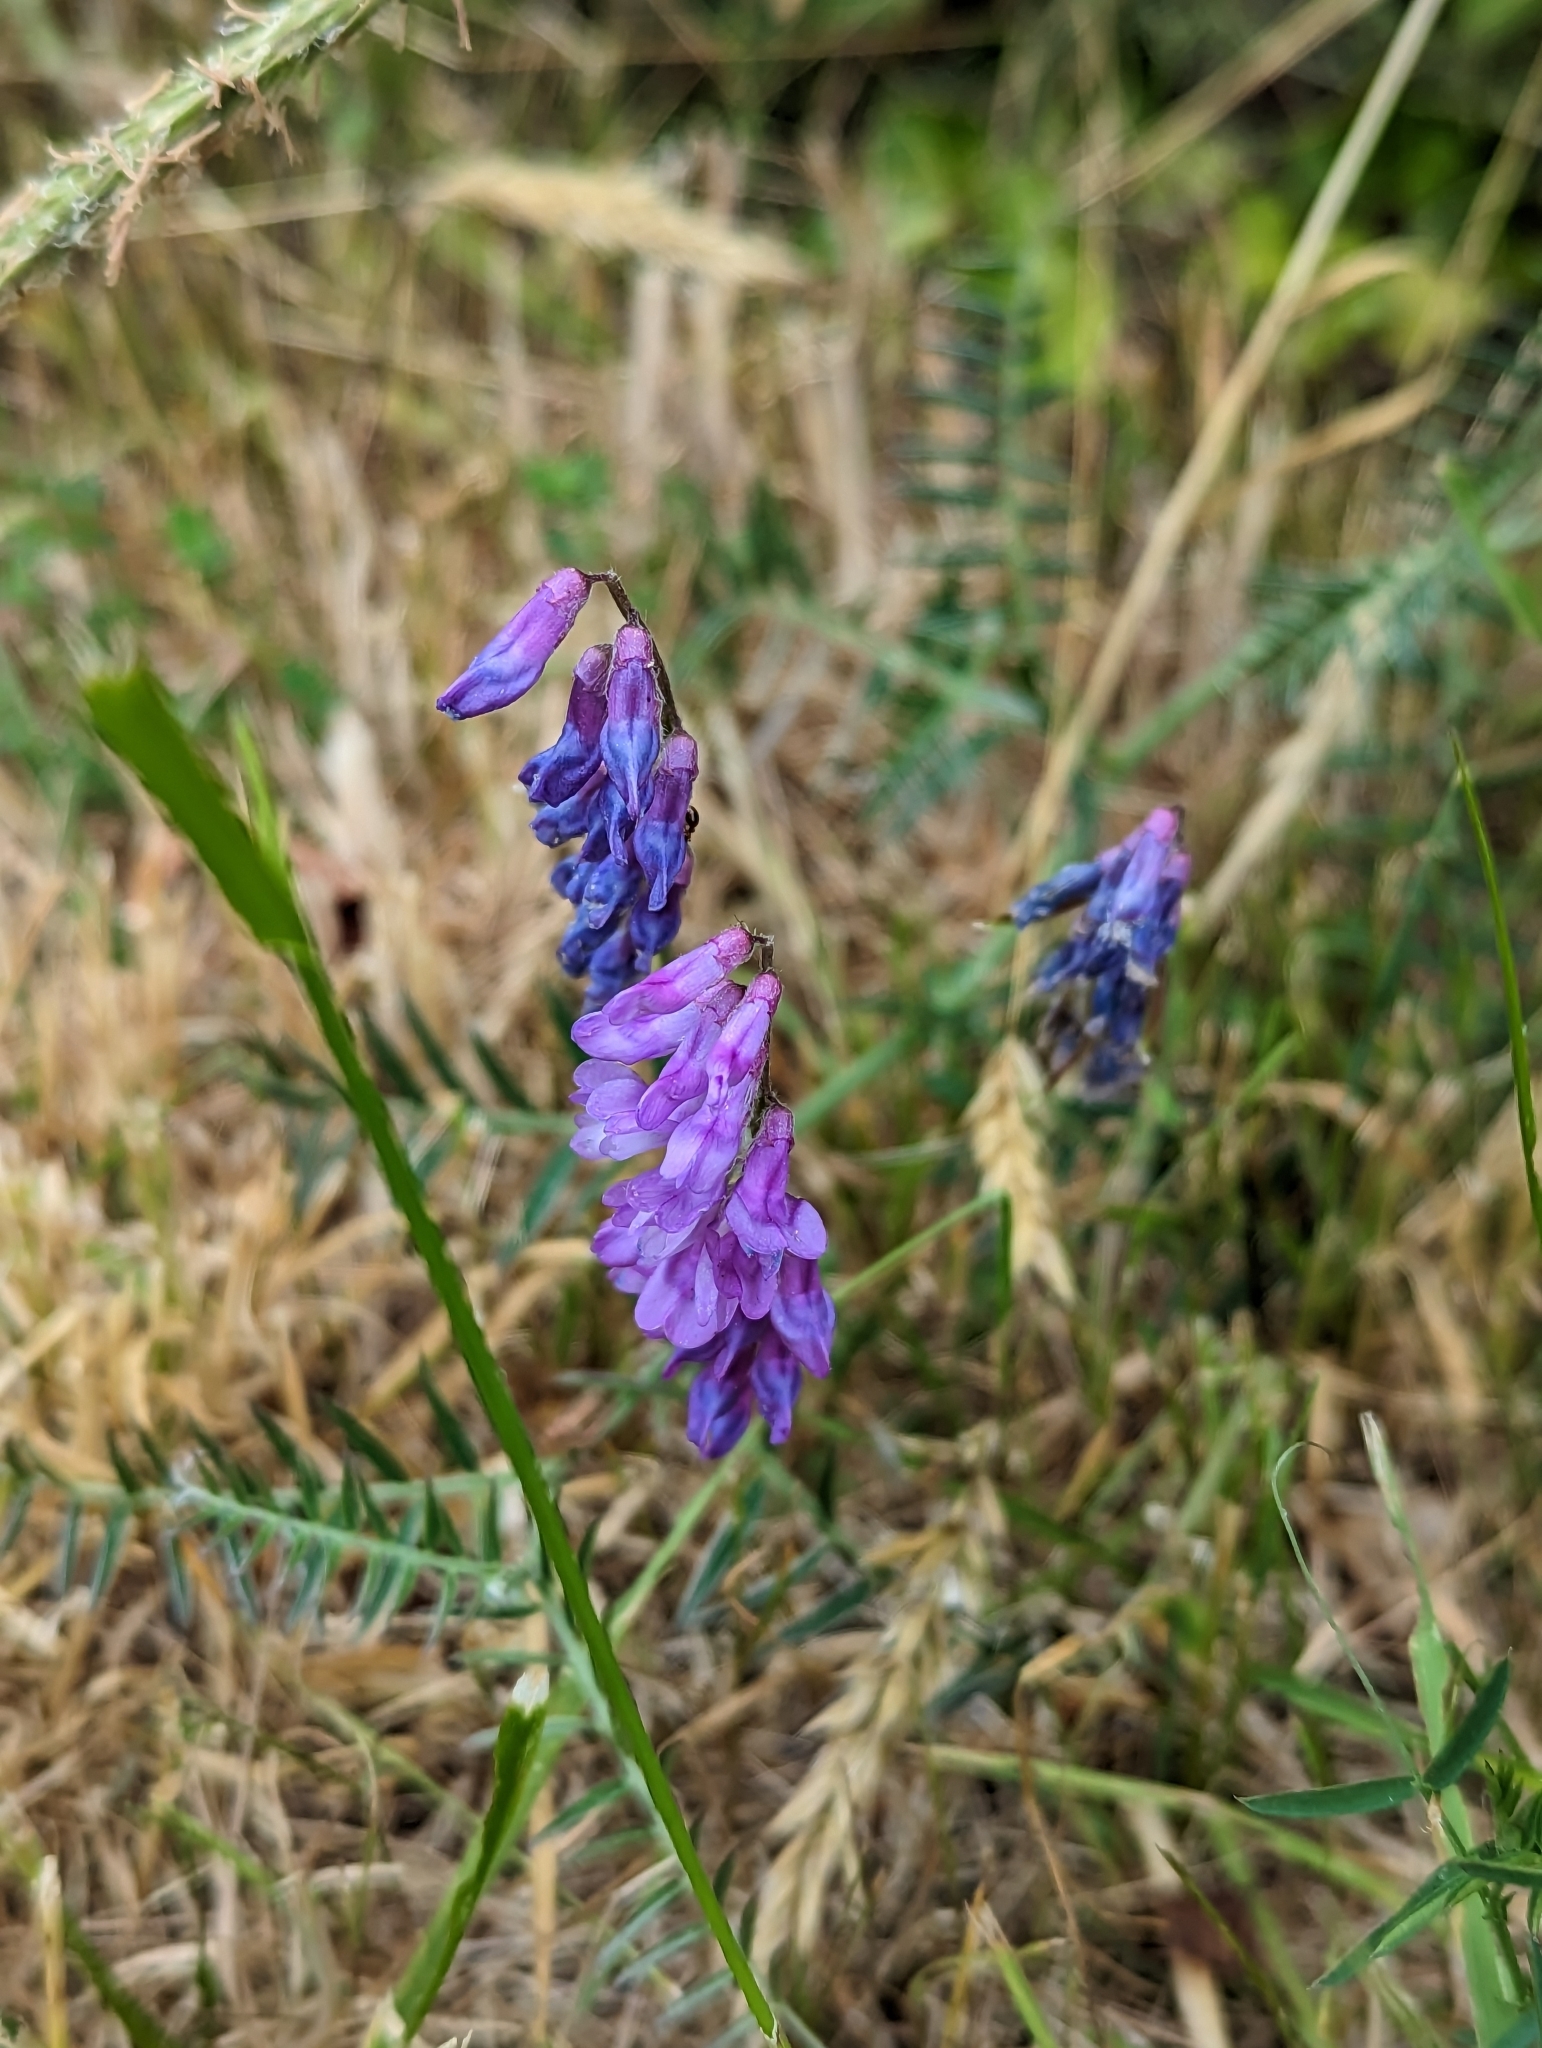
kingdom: Plantae
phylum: Tracheophyta
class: Magnoliopsida
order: Fabales
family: Fabaceae
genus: Vicia
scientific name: Vicia cracca
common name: Bird vetch
